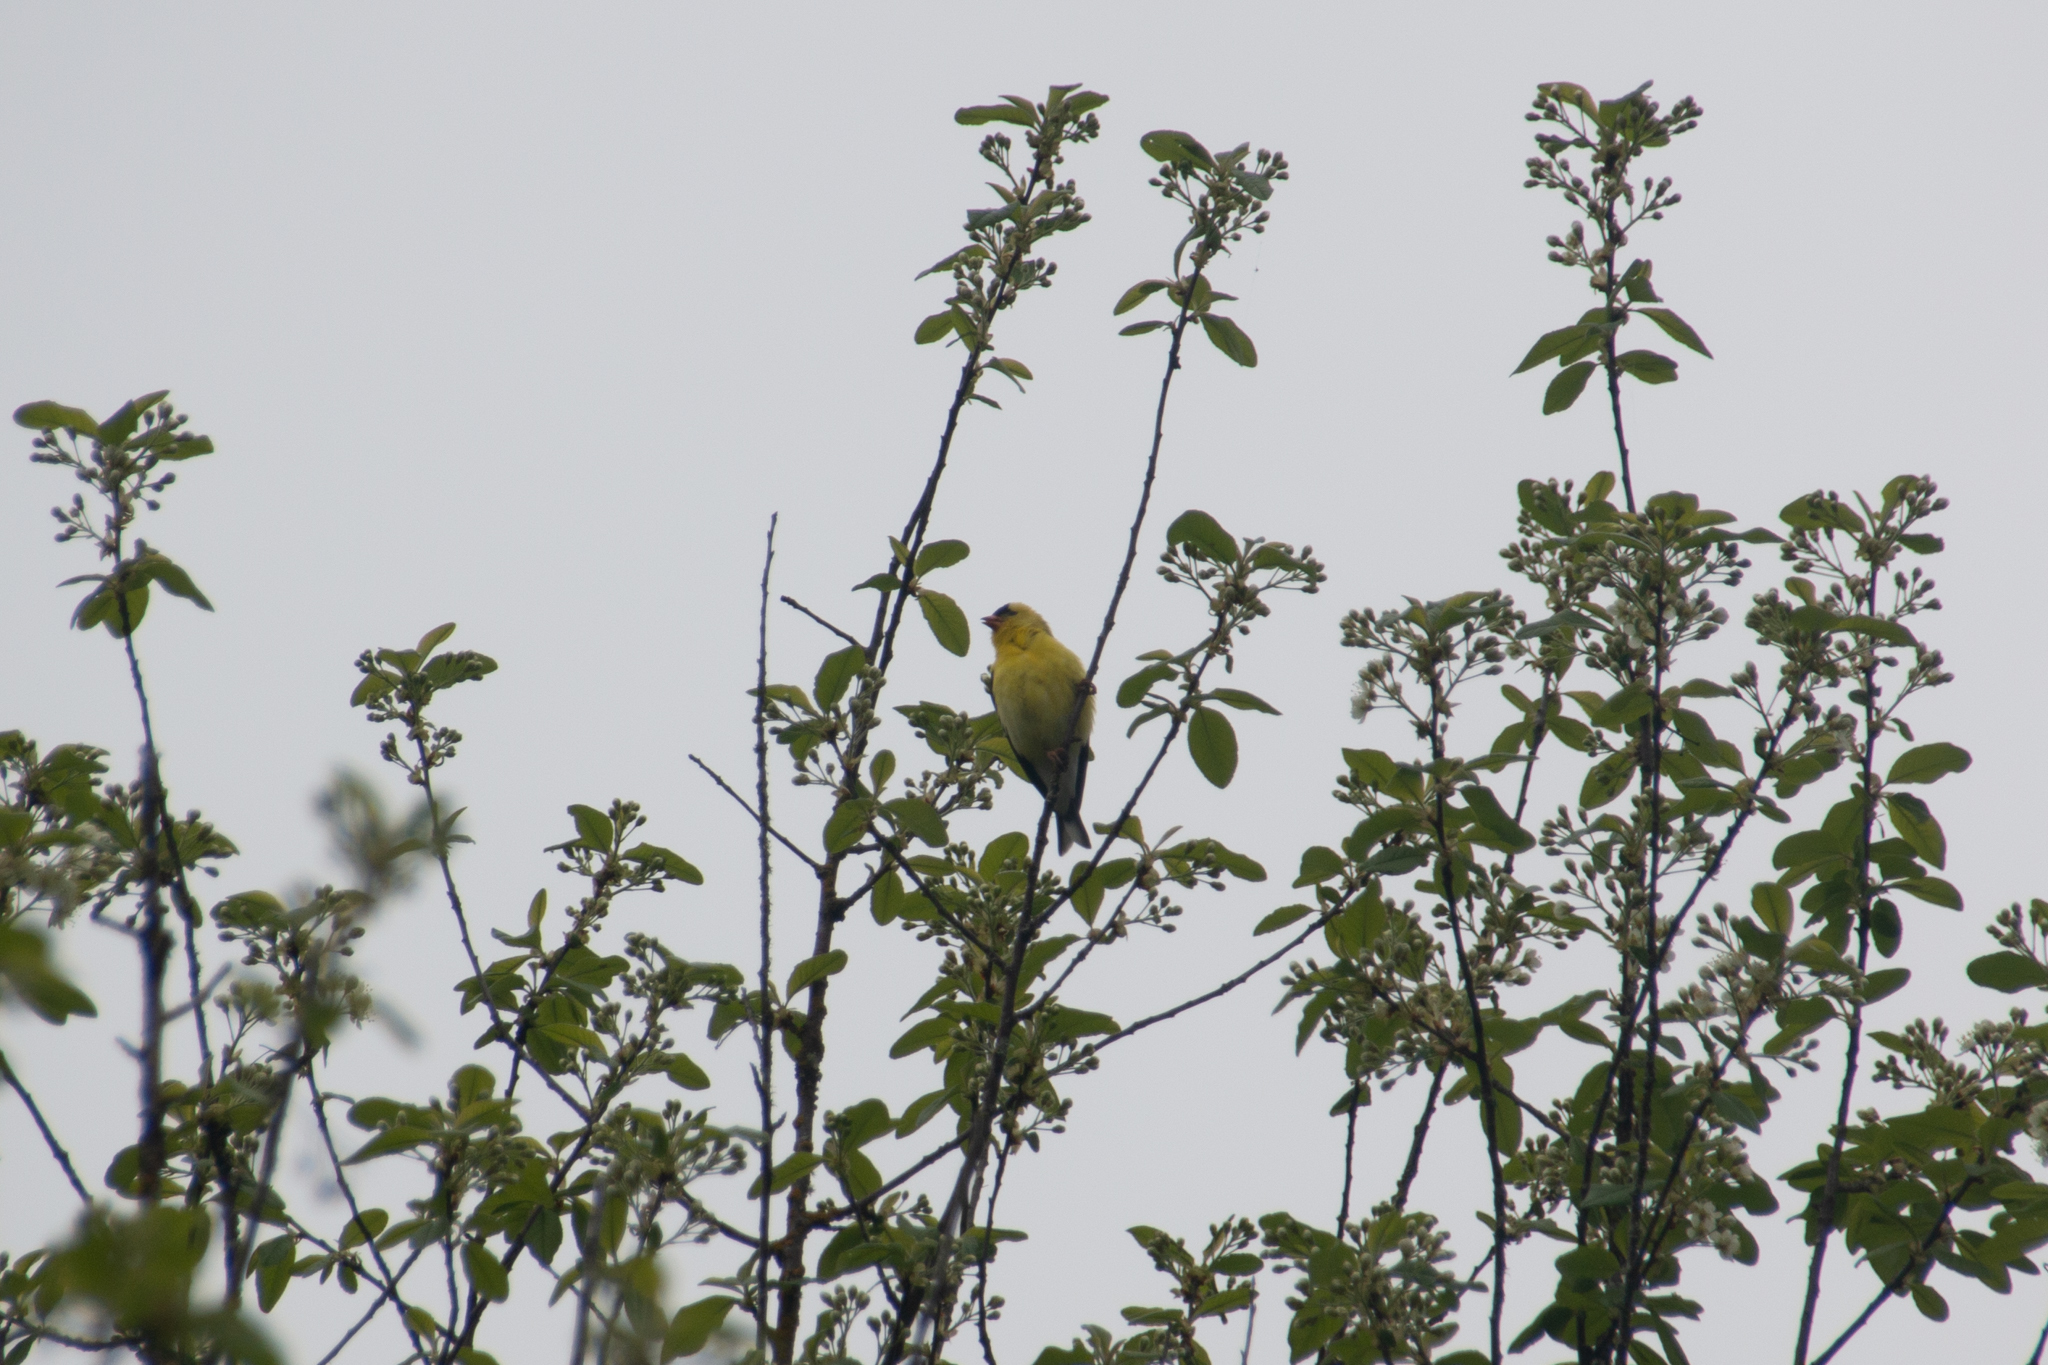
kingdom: Animalia
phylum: Chordata
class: Aves
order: Passeriformes
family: Fringillidae
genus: Spinus
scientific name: Spinus tristis
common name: American goldfinch
